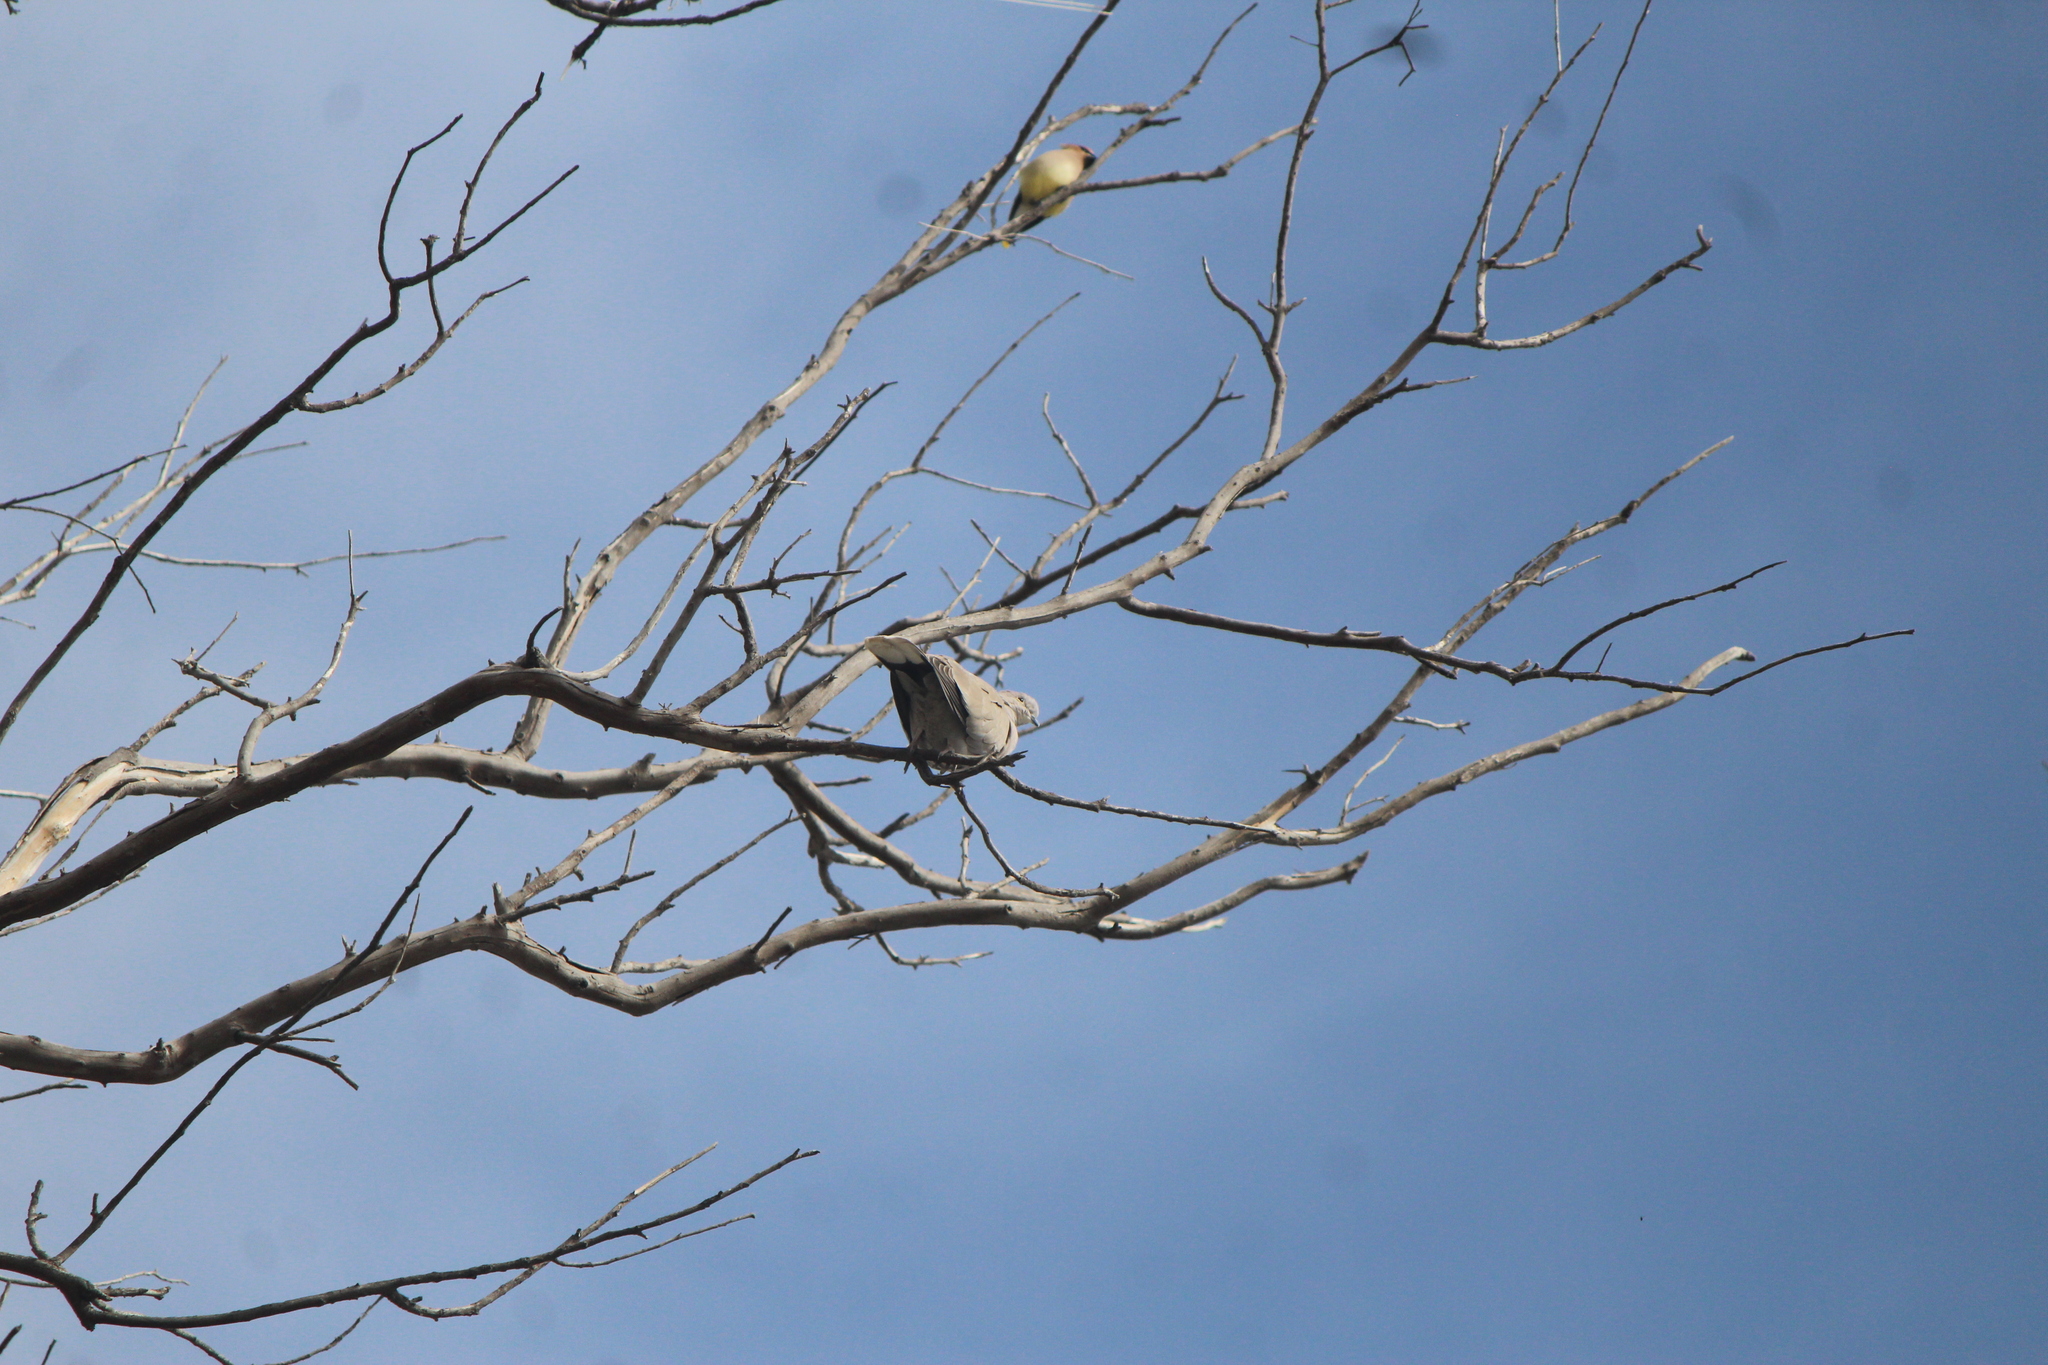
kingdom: Animalia
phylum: Chordata
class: Aves
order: Columbiformes
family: Columbidae
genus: Streptopelia
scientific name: Streptopelia decaocto
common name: Eurasian collared dove
